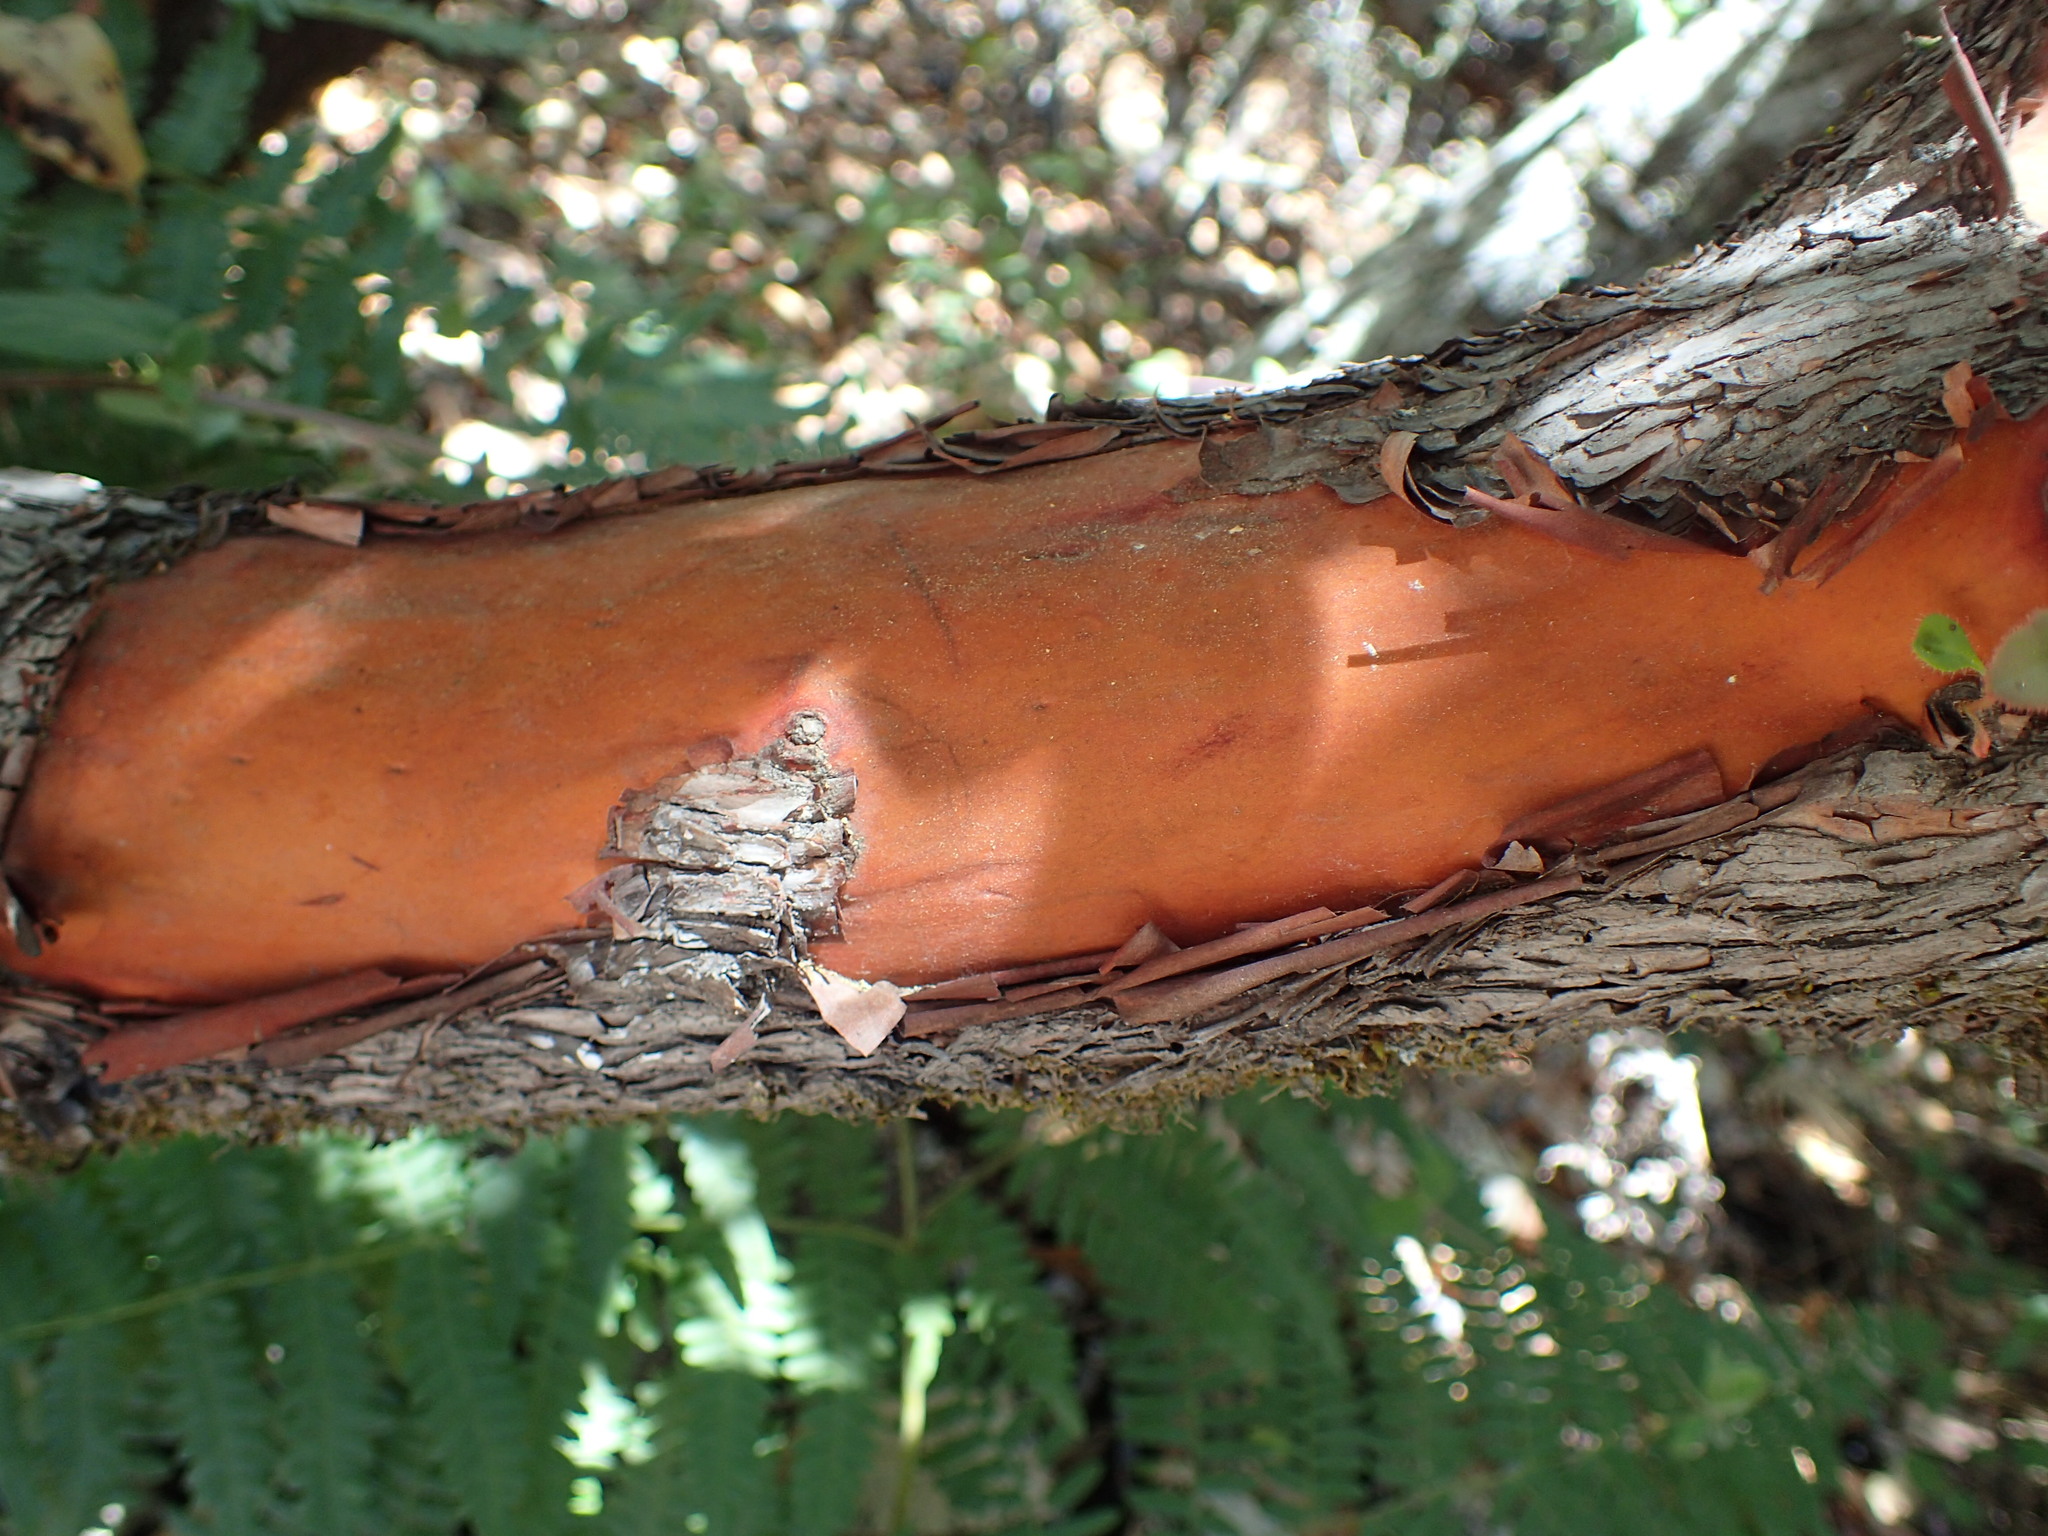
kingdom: Plantae
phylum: Tracheophyta
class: Magnoliopsida
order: Ericales
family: Ericaceae
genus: Arbutus
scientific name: Arbutus menziesii
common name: Pacific madrone
